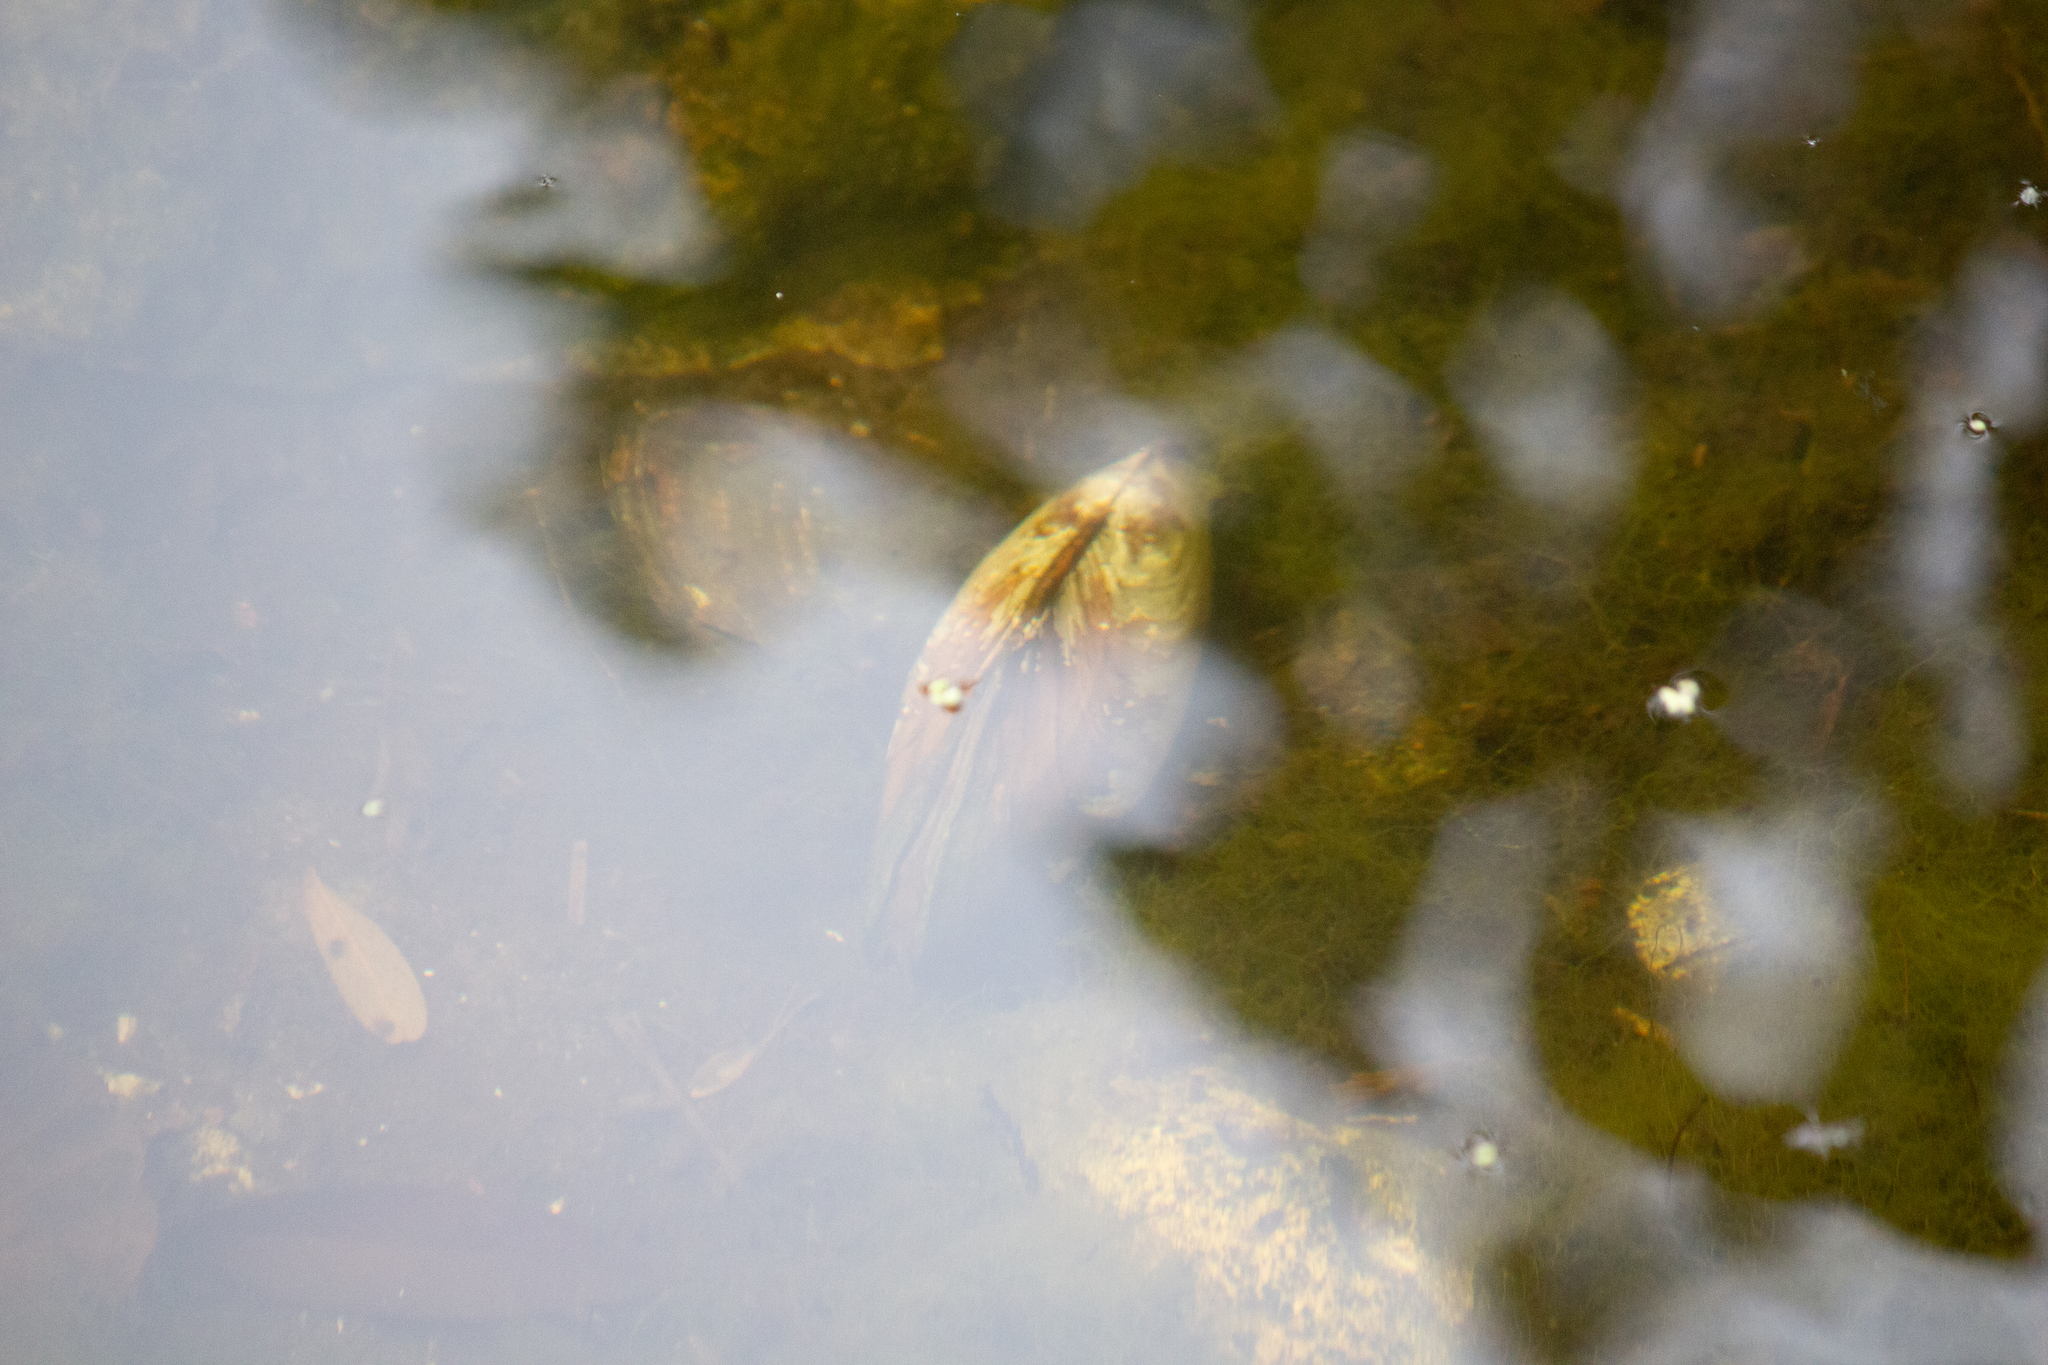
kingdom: Animalia
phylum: Mollusca
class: Bivalvia
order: Unionida
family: Unionidae
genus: Anodonta
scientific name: Anodonta anatina
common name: Duck mussel
